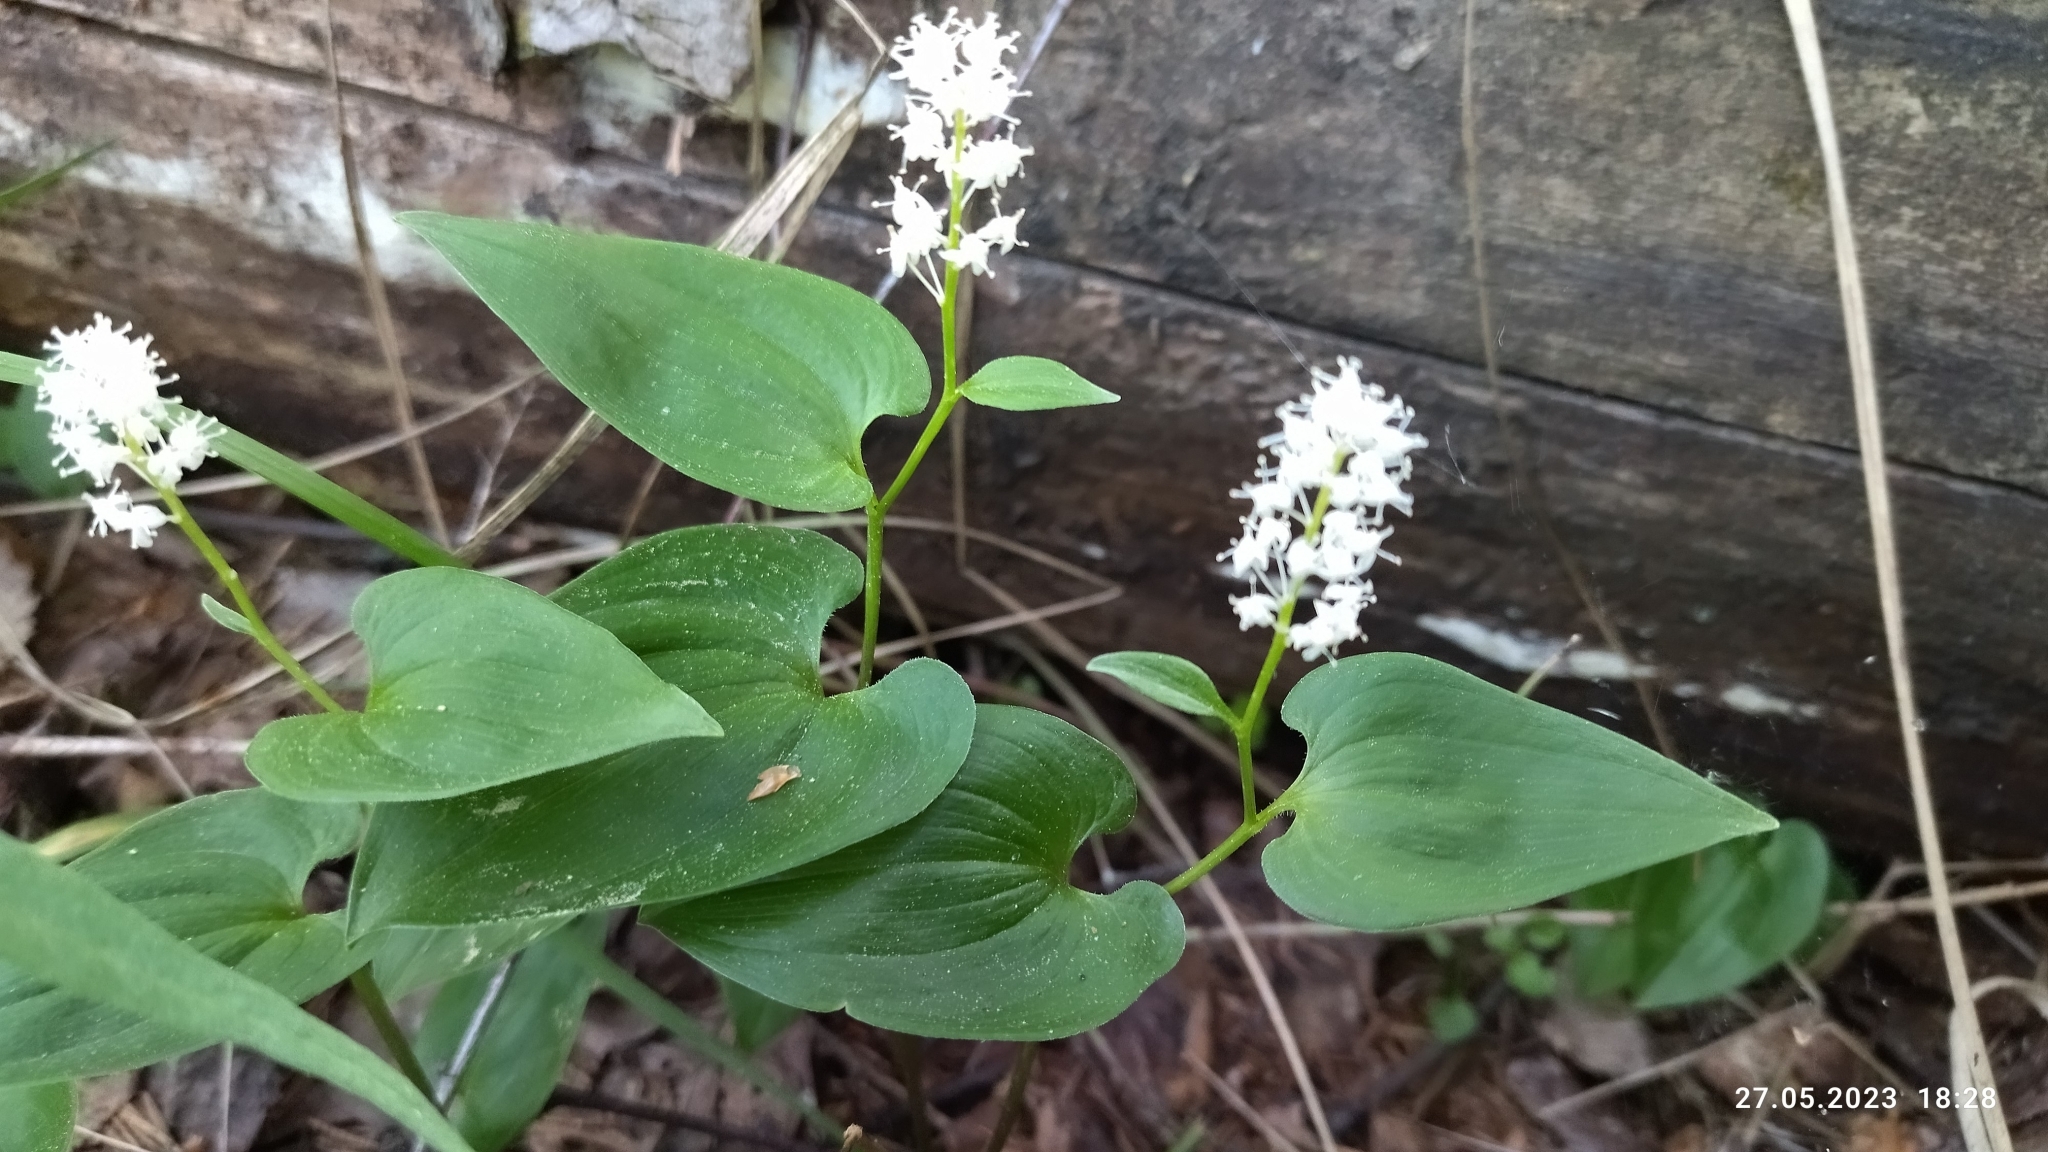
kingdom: Plantae
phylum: Tracheophyta
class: Liliopsida
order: Asparagales
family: Asparagaceae
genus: Maianthemum
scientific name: Maianthemum bifolium
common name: May lily
